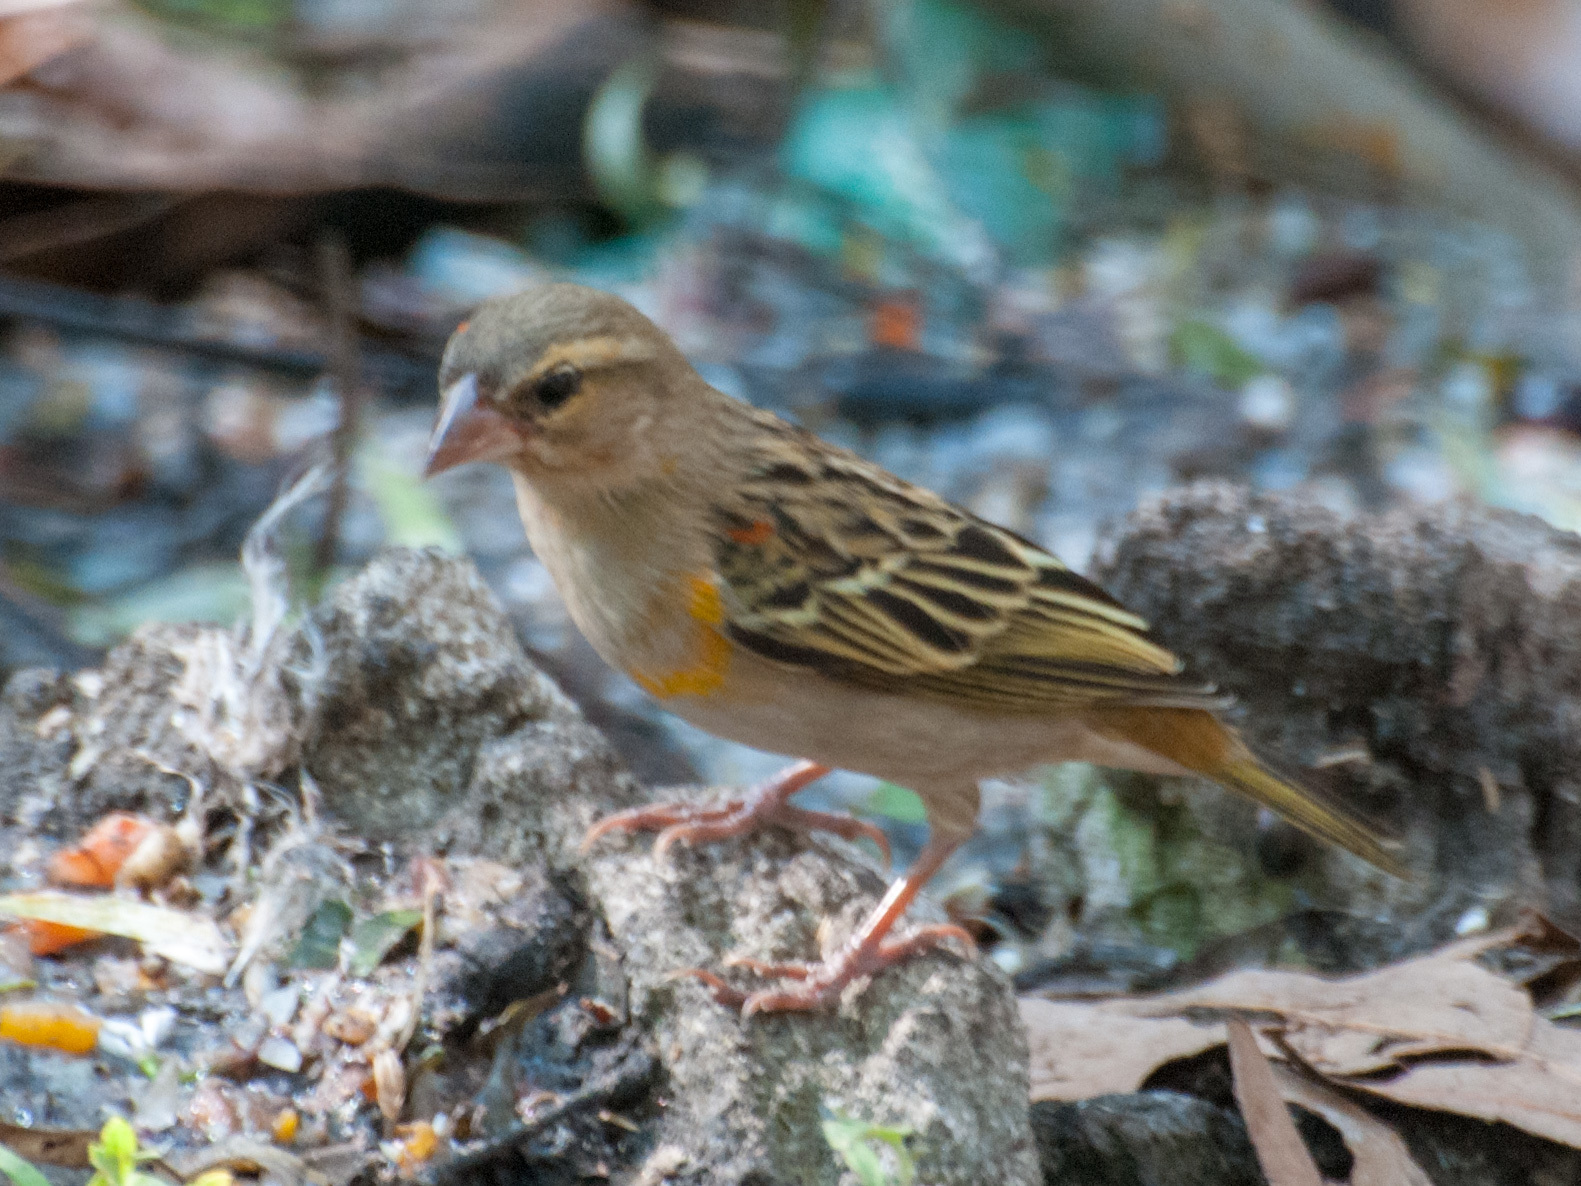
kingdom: Animalia
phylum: Chordata
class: Aves
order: Passeriformes
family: Ploceidae
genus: Foudia
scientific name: Foudia madagascariensis
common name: Red fody
